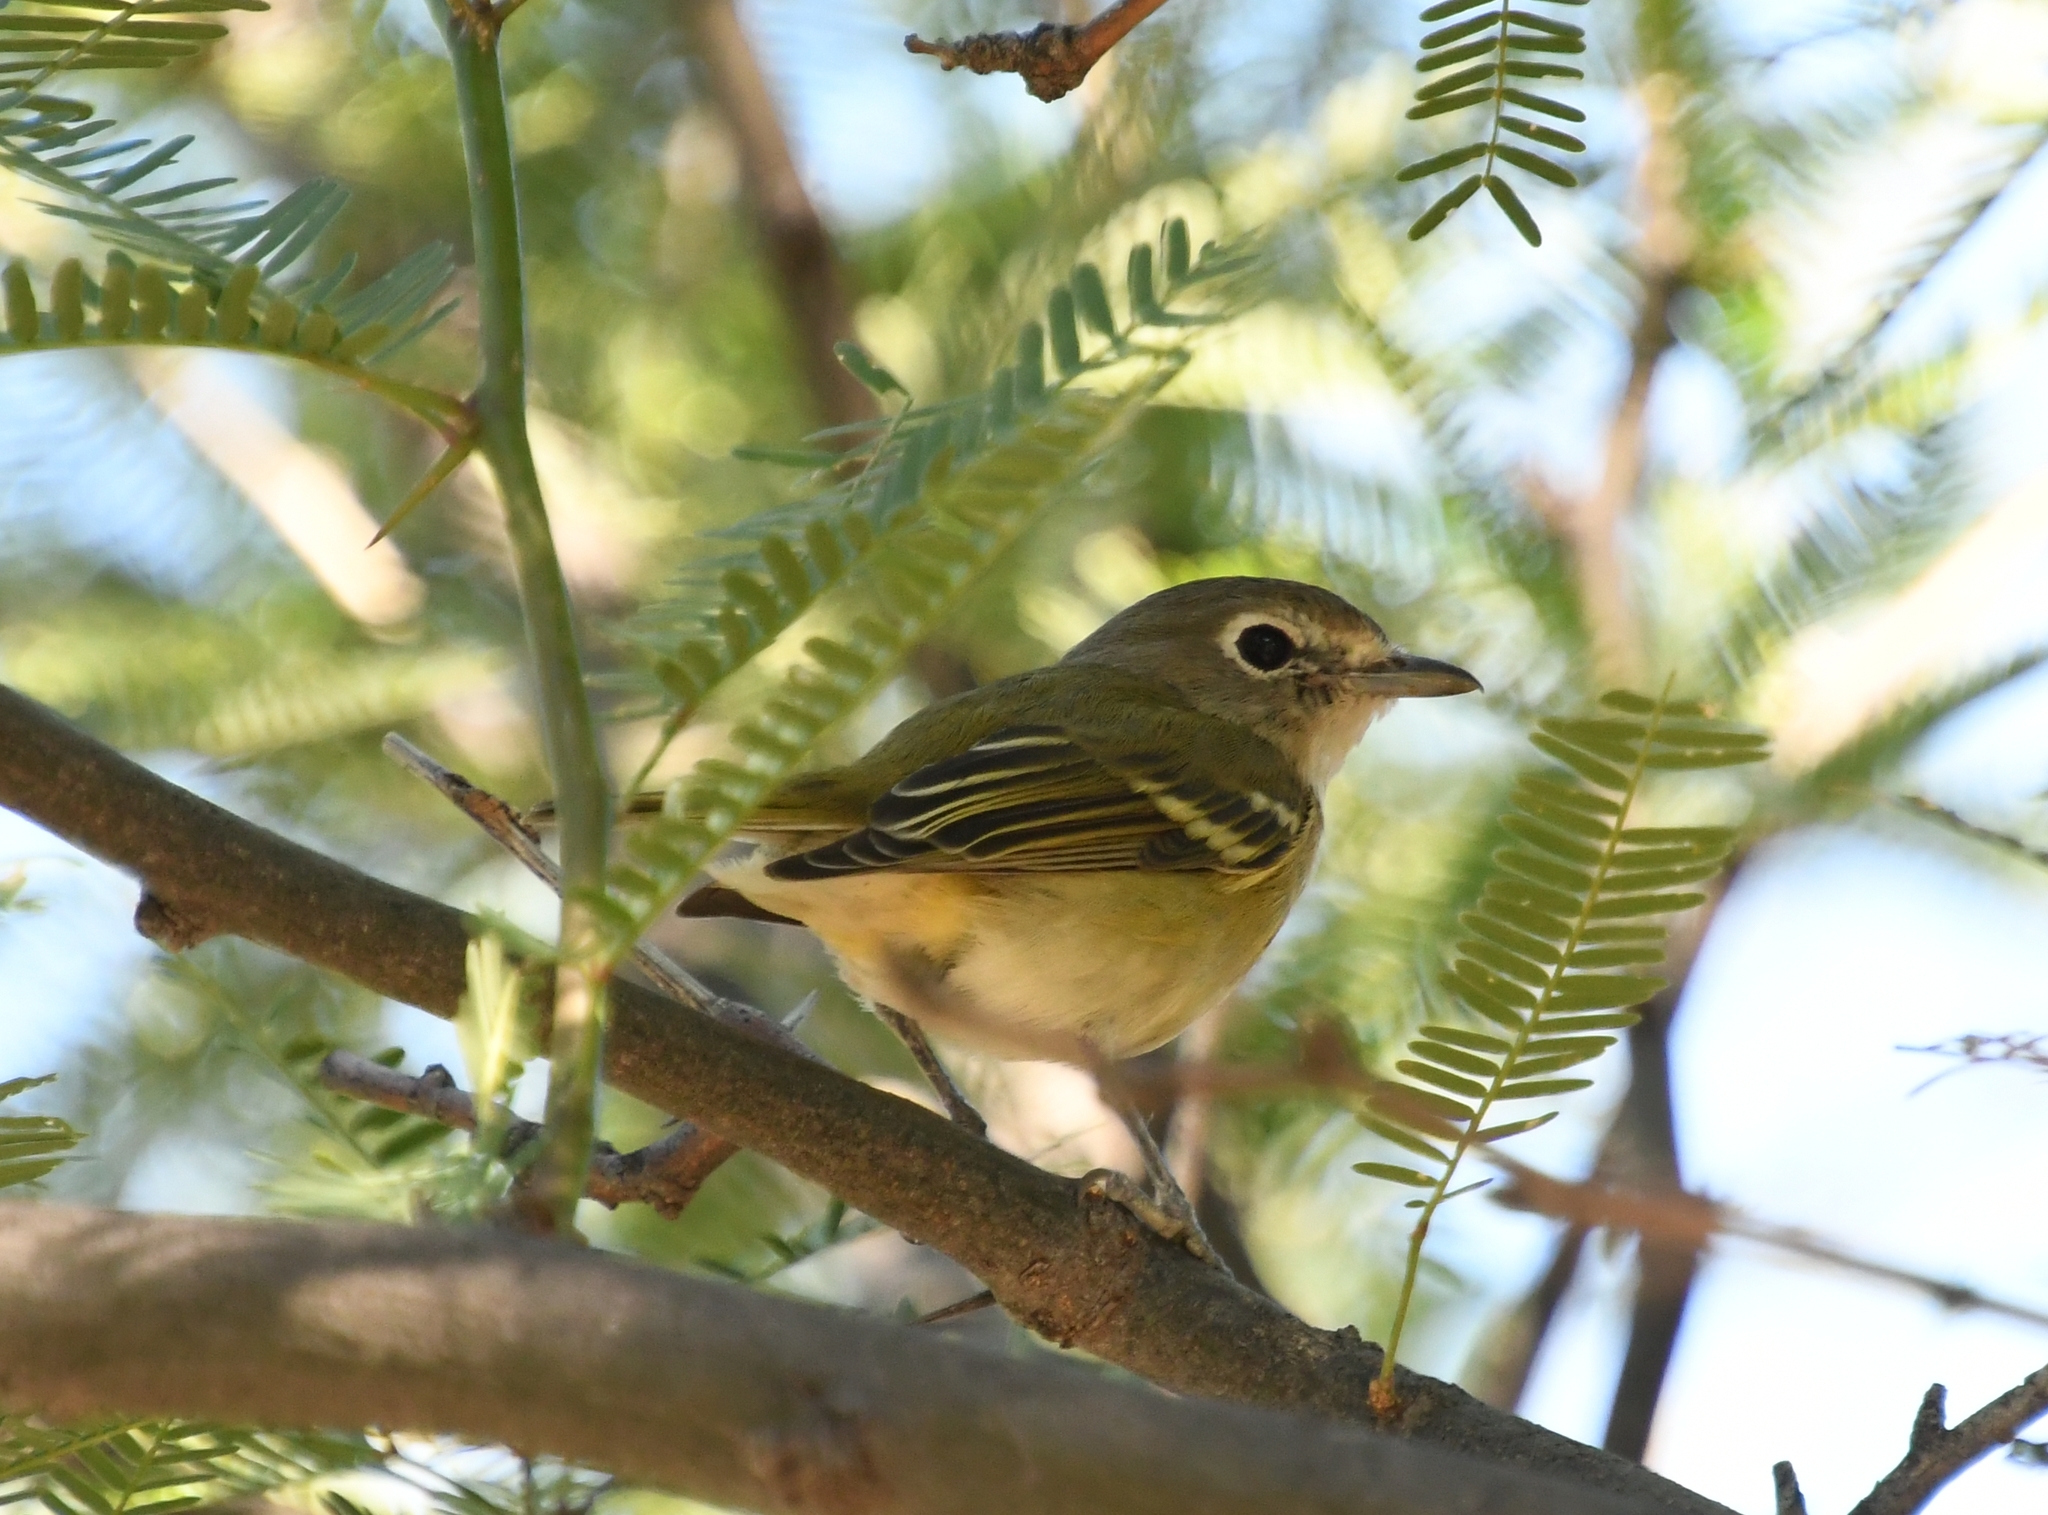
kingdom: Animalia
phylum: Chordata
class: Aves
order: Passeriformes
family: Vireonidae
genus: Vireo
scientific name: Vireo cassinii
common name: Cassin's vireo
